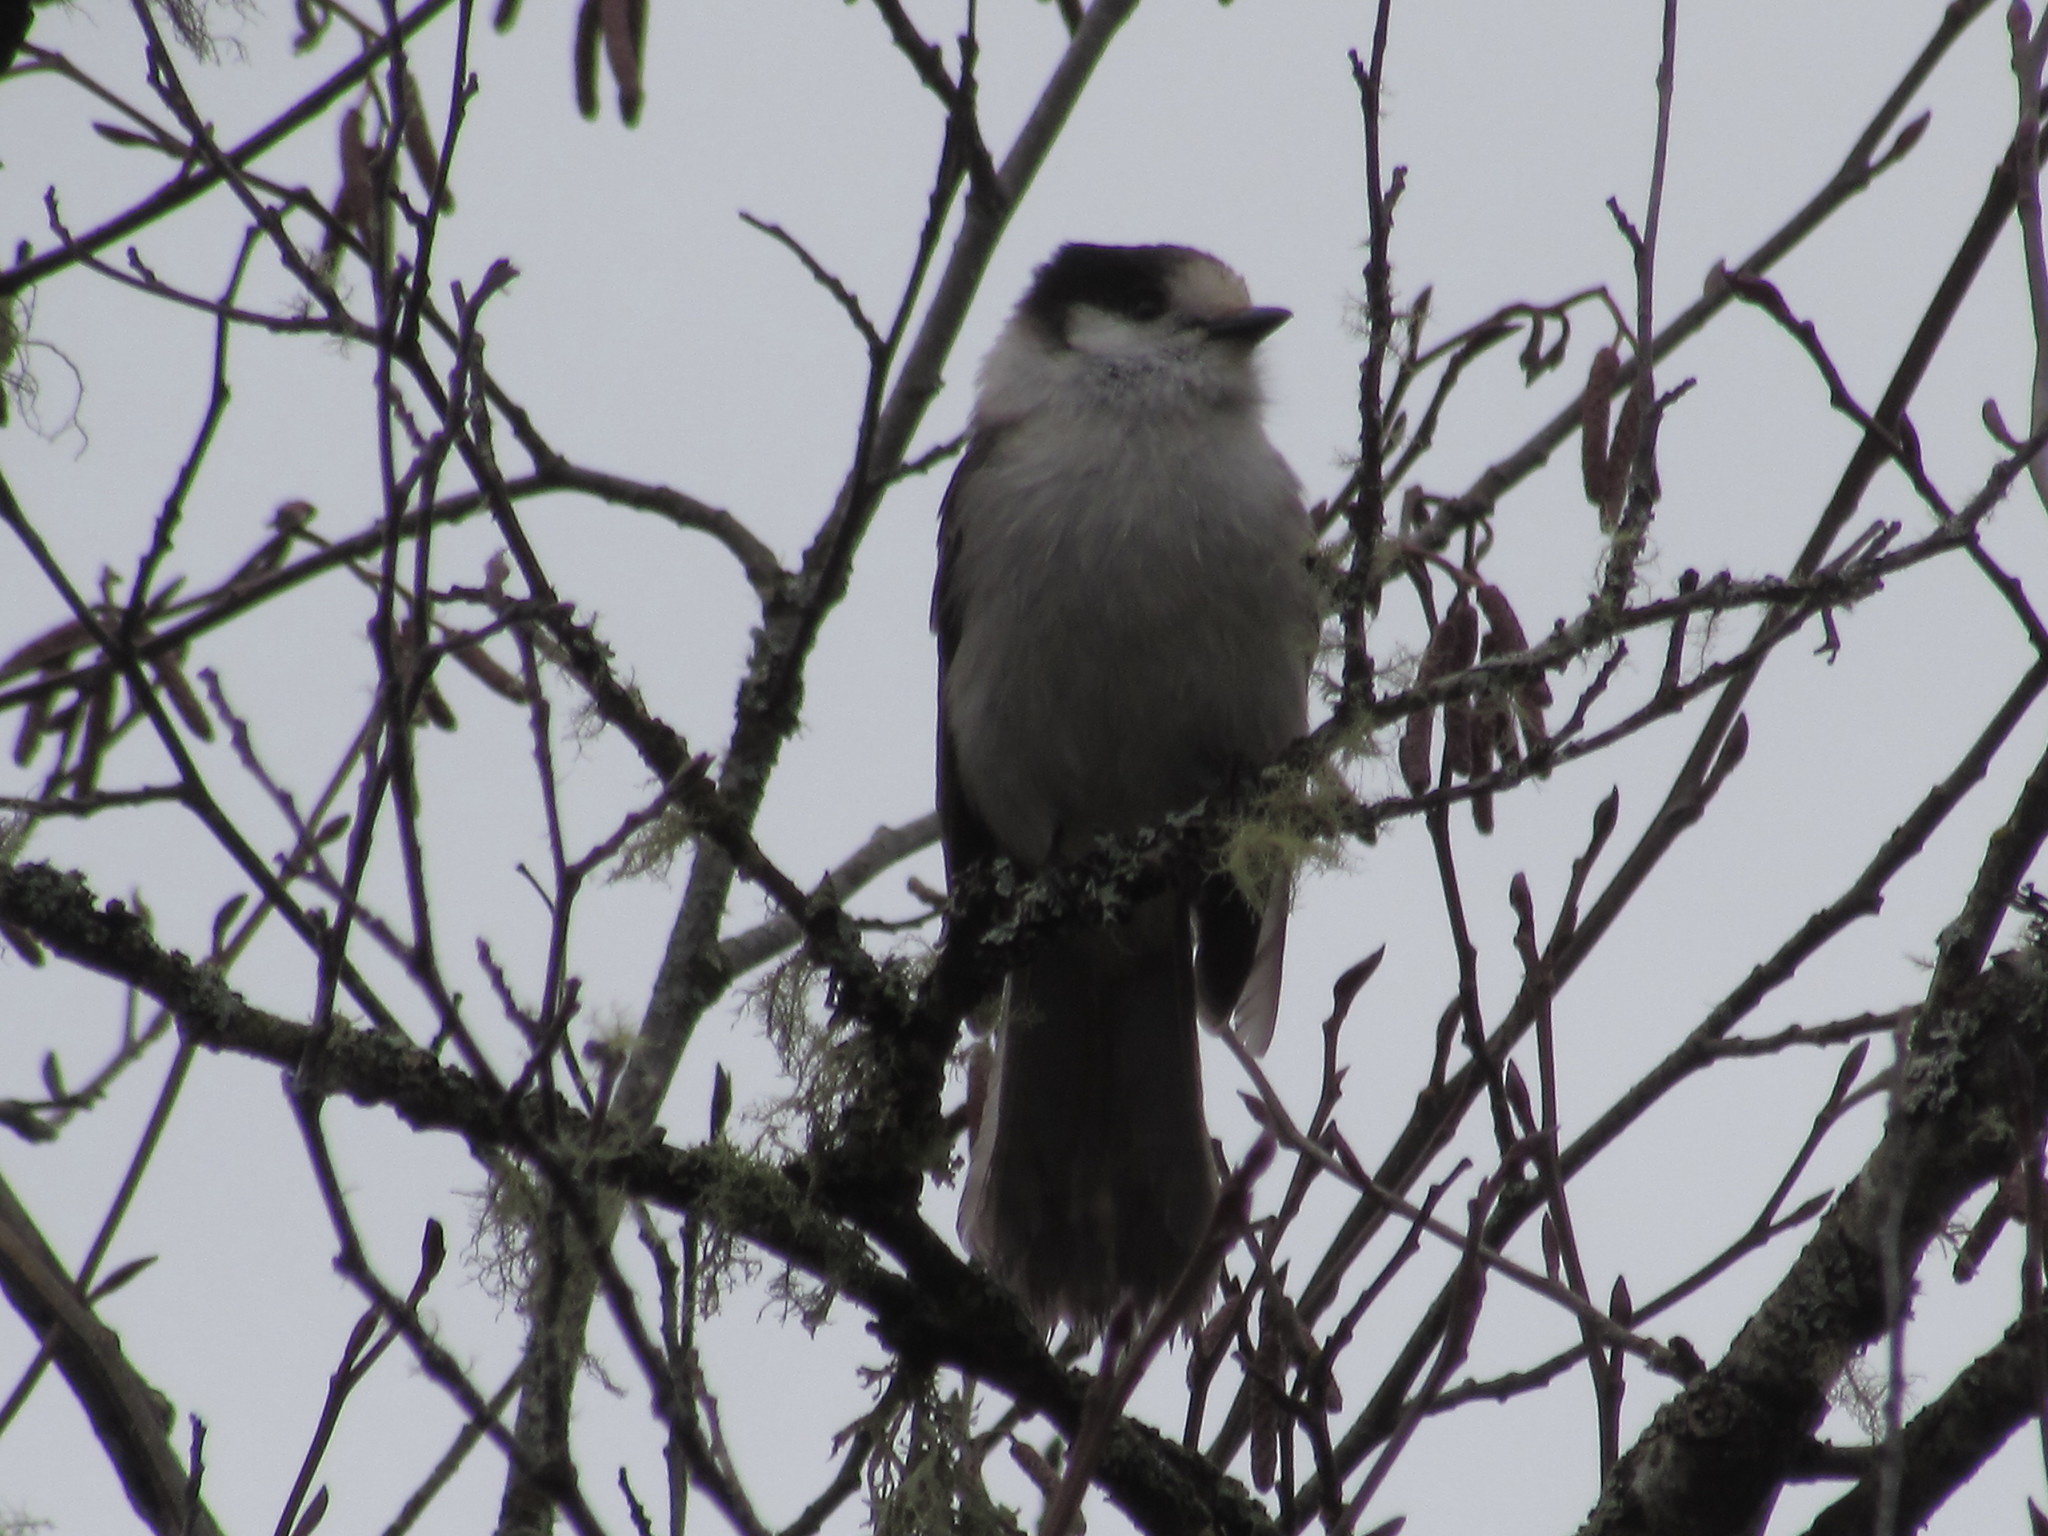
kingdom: Animalia
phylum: Chordata
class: Aves
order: Passeriformes
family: Corvidae
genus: Perisoreus
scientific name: Perisoreus canadensis
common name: Gray jay
